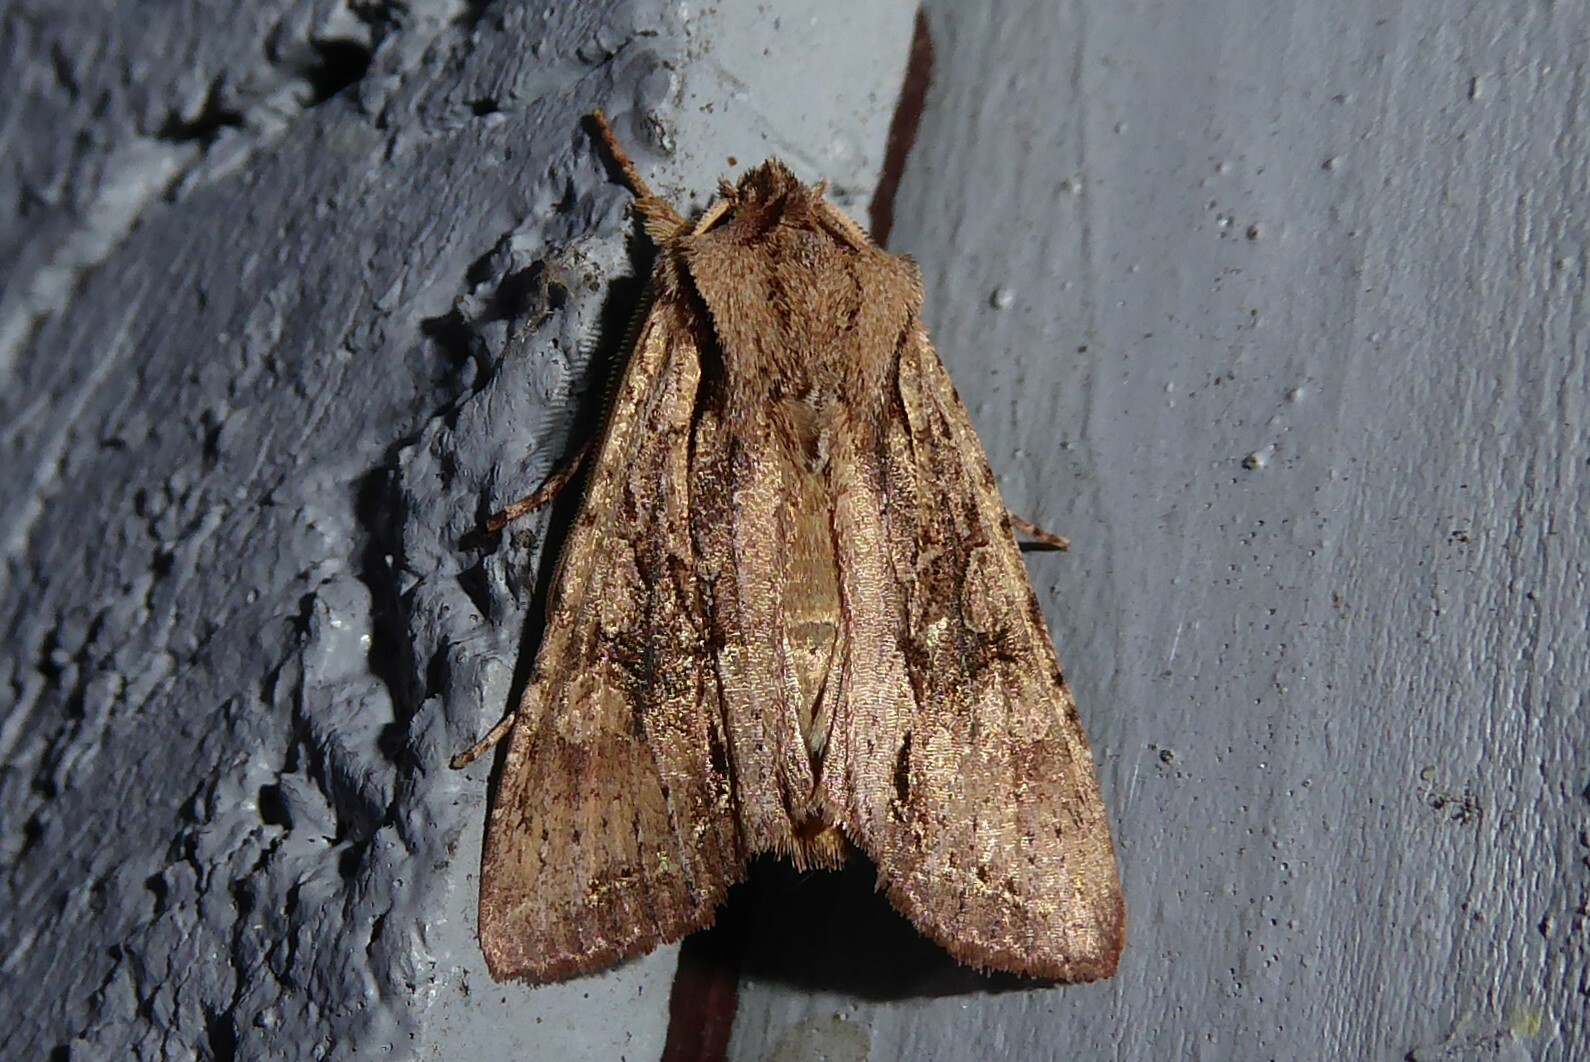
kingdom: Animalia
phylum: Arthropoda
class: Insecta
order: Lepidoptera
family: Noctuidae
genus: Ichneutica
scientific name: Ichneutica
